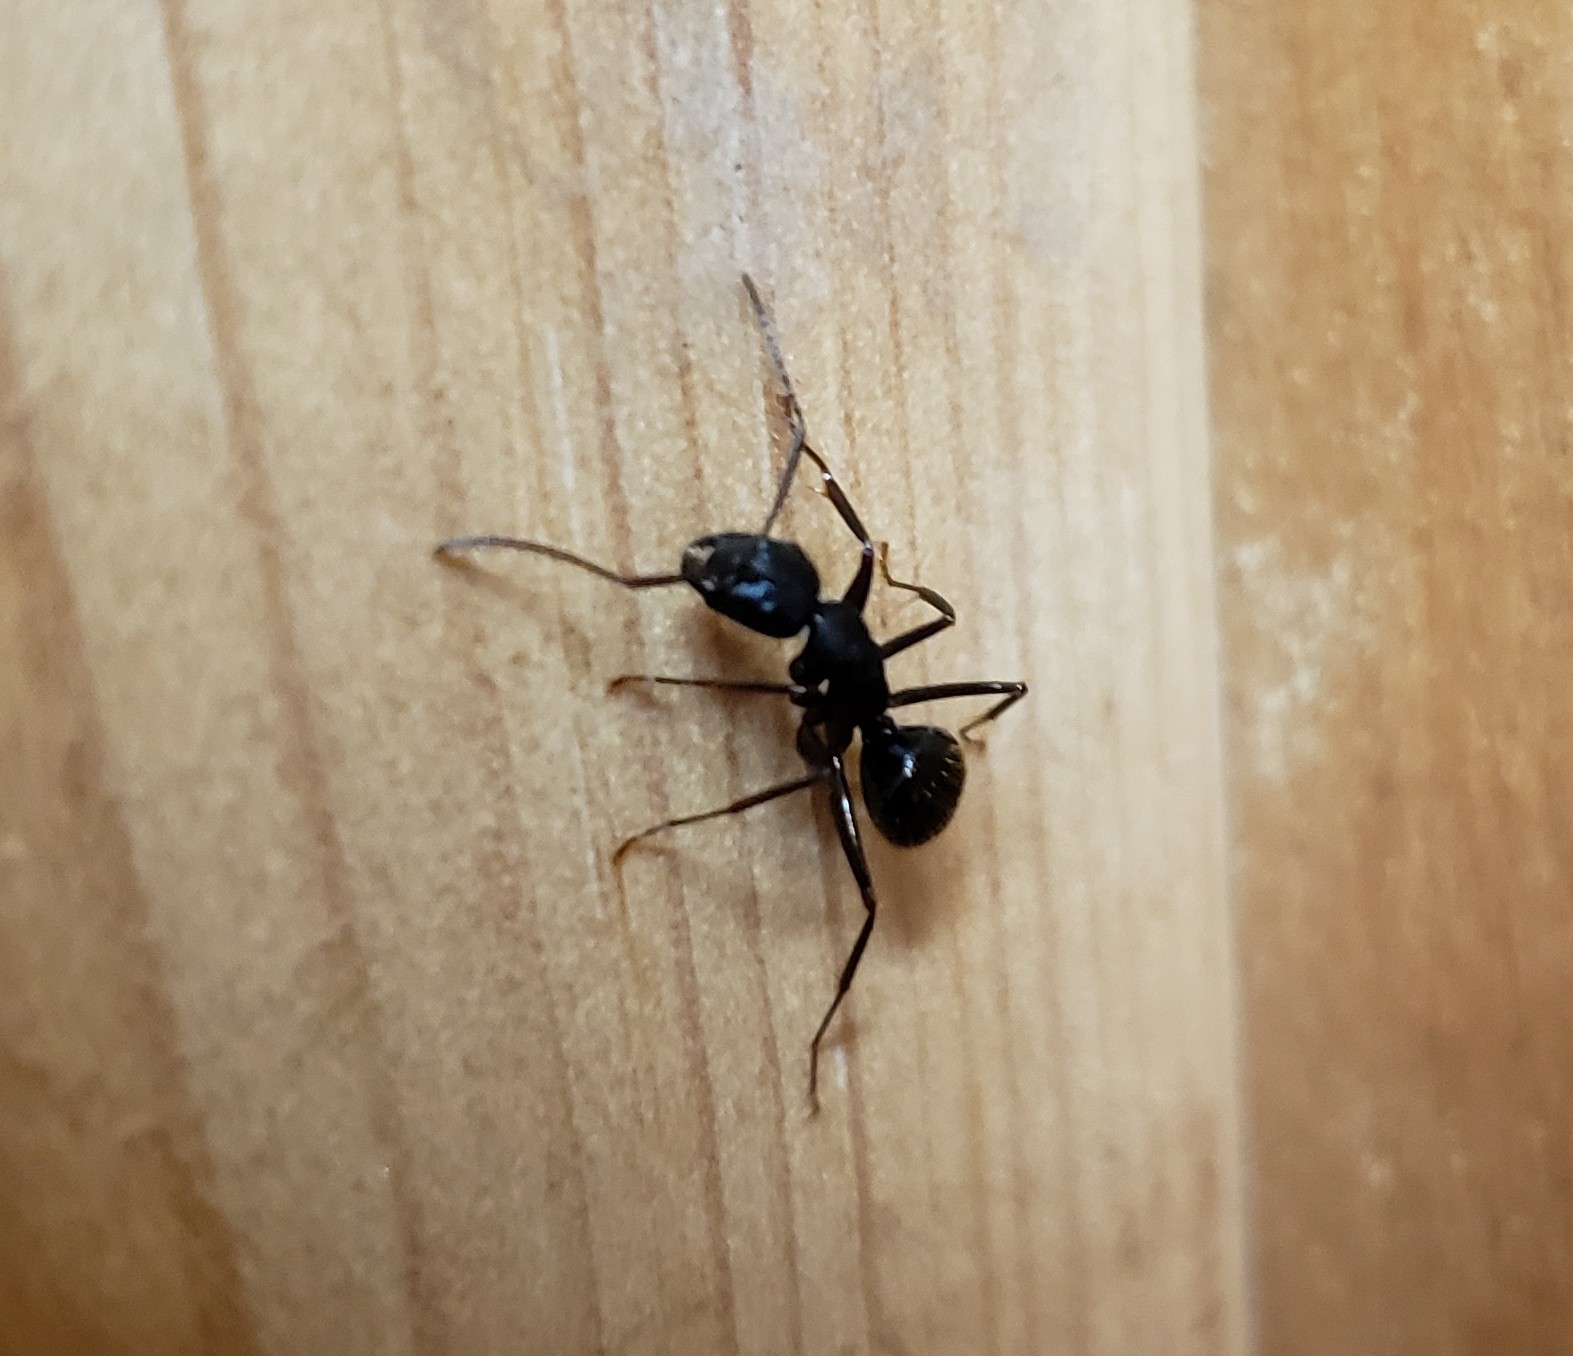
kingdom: Animalia
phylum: Arthropoda
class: Insecta
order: Hymenoptera
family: Formicidae
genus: Camponotus
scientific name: Camponotus pennsylvanicus
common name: Black carpenter ant
